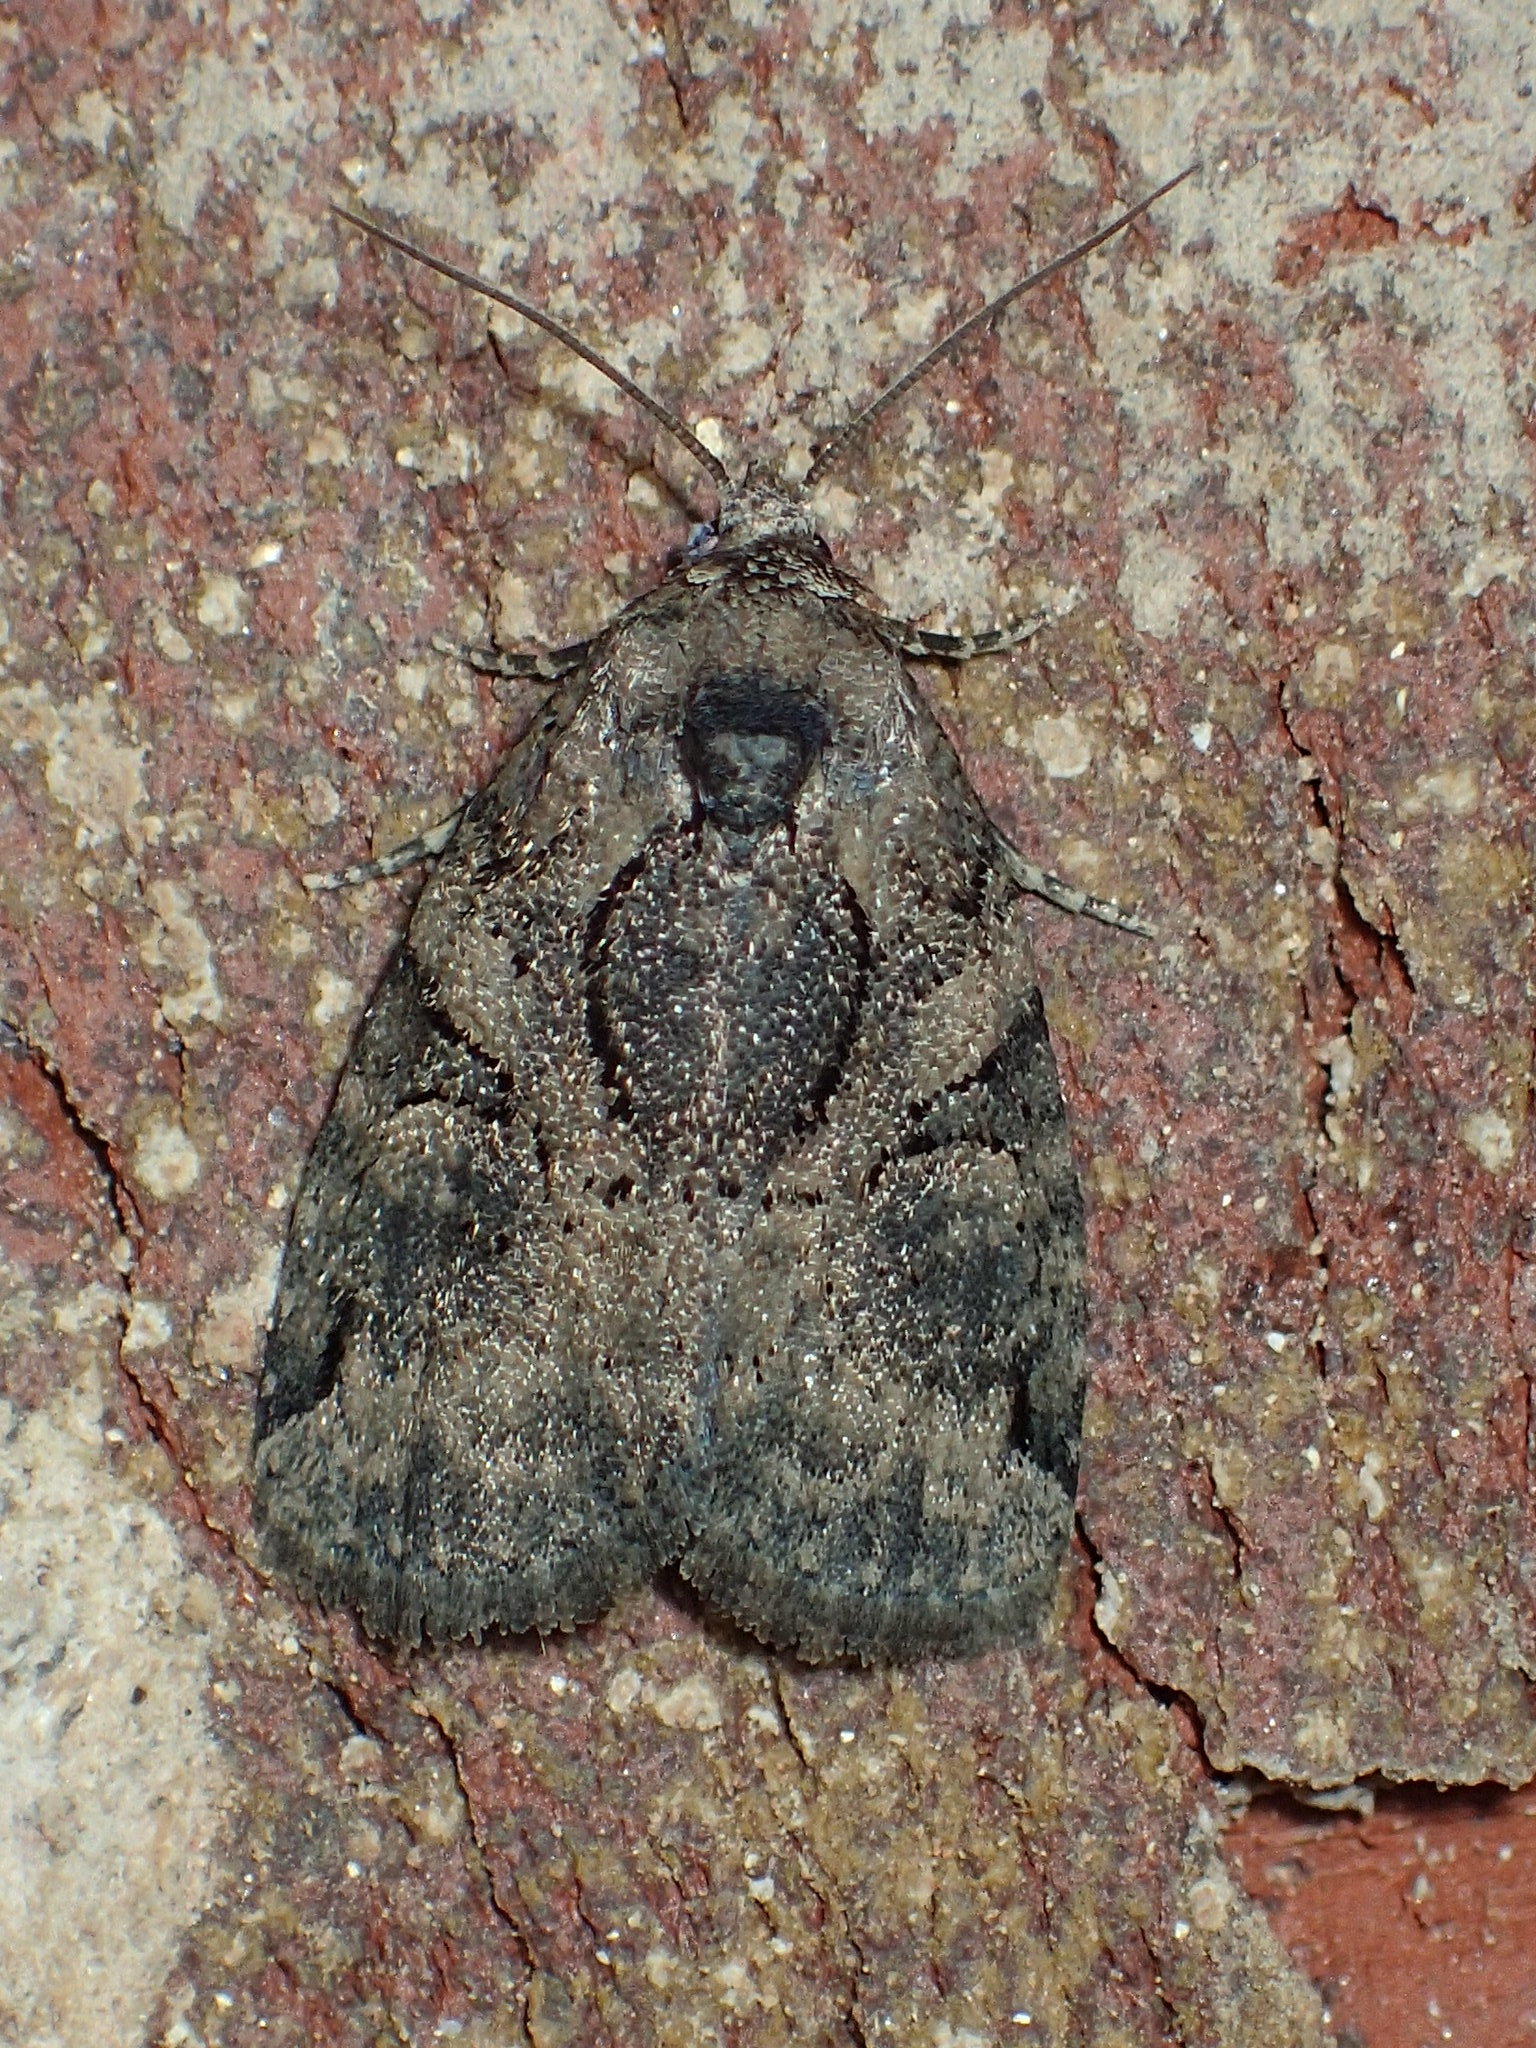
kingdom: Animalia
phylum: Arthropoda
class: Insecta
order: Lepidoptera
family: Noctuidae
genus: Pseudeustrotia
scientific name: Pseudeustrotia indeterminata
